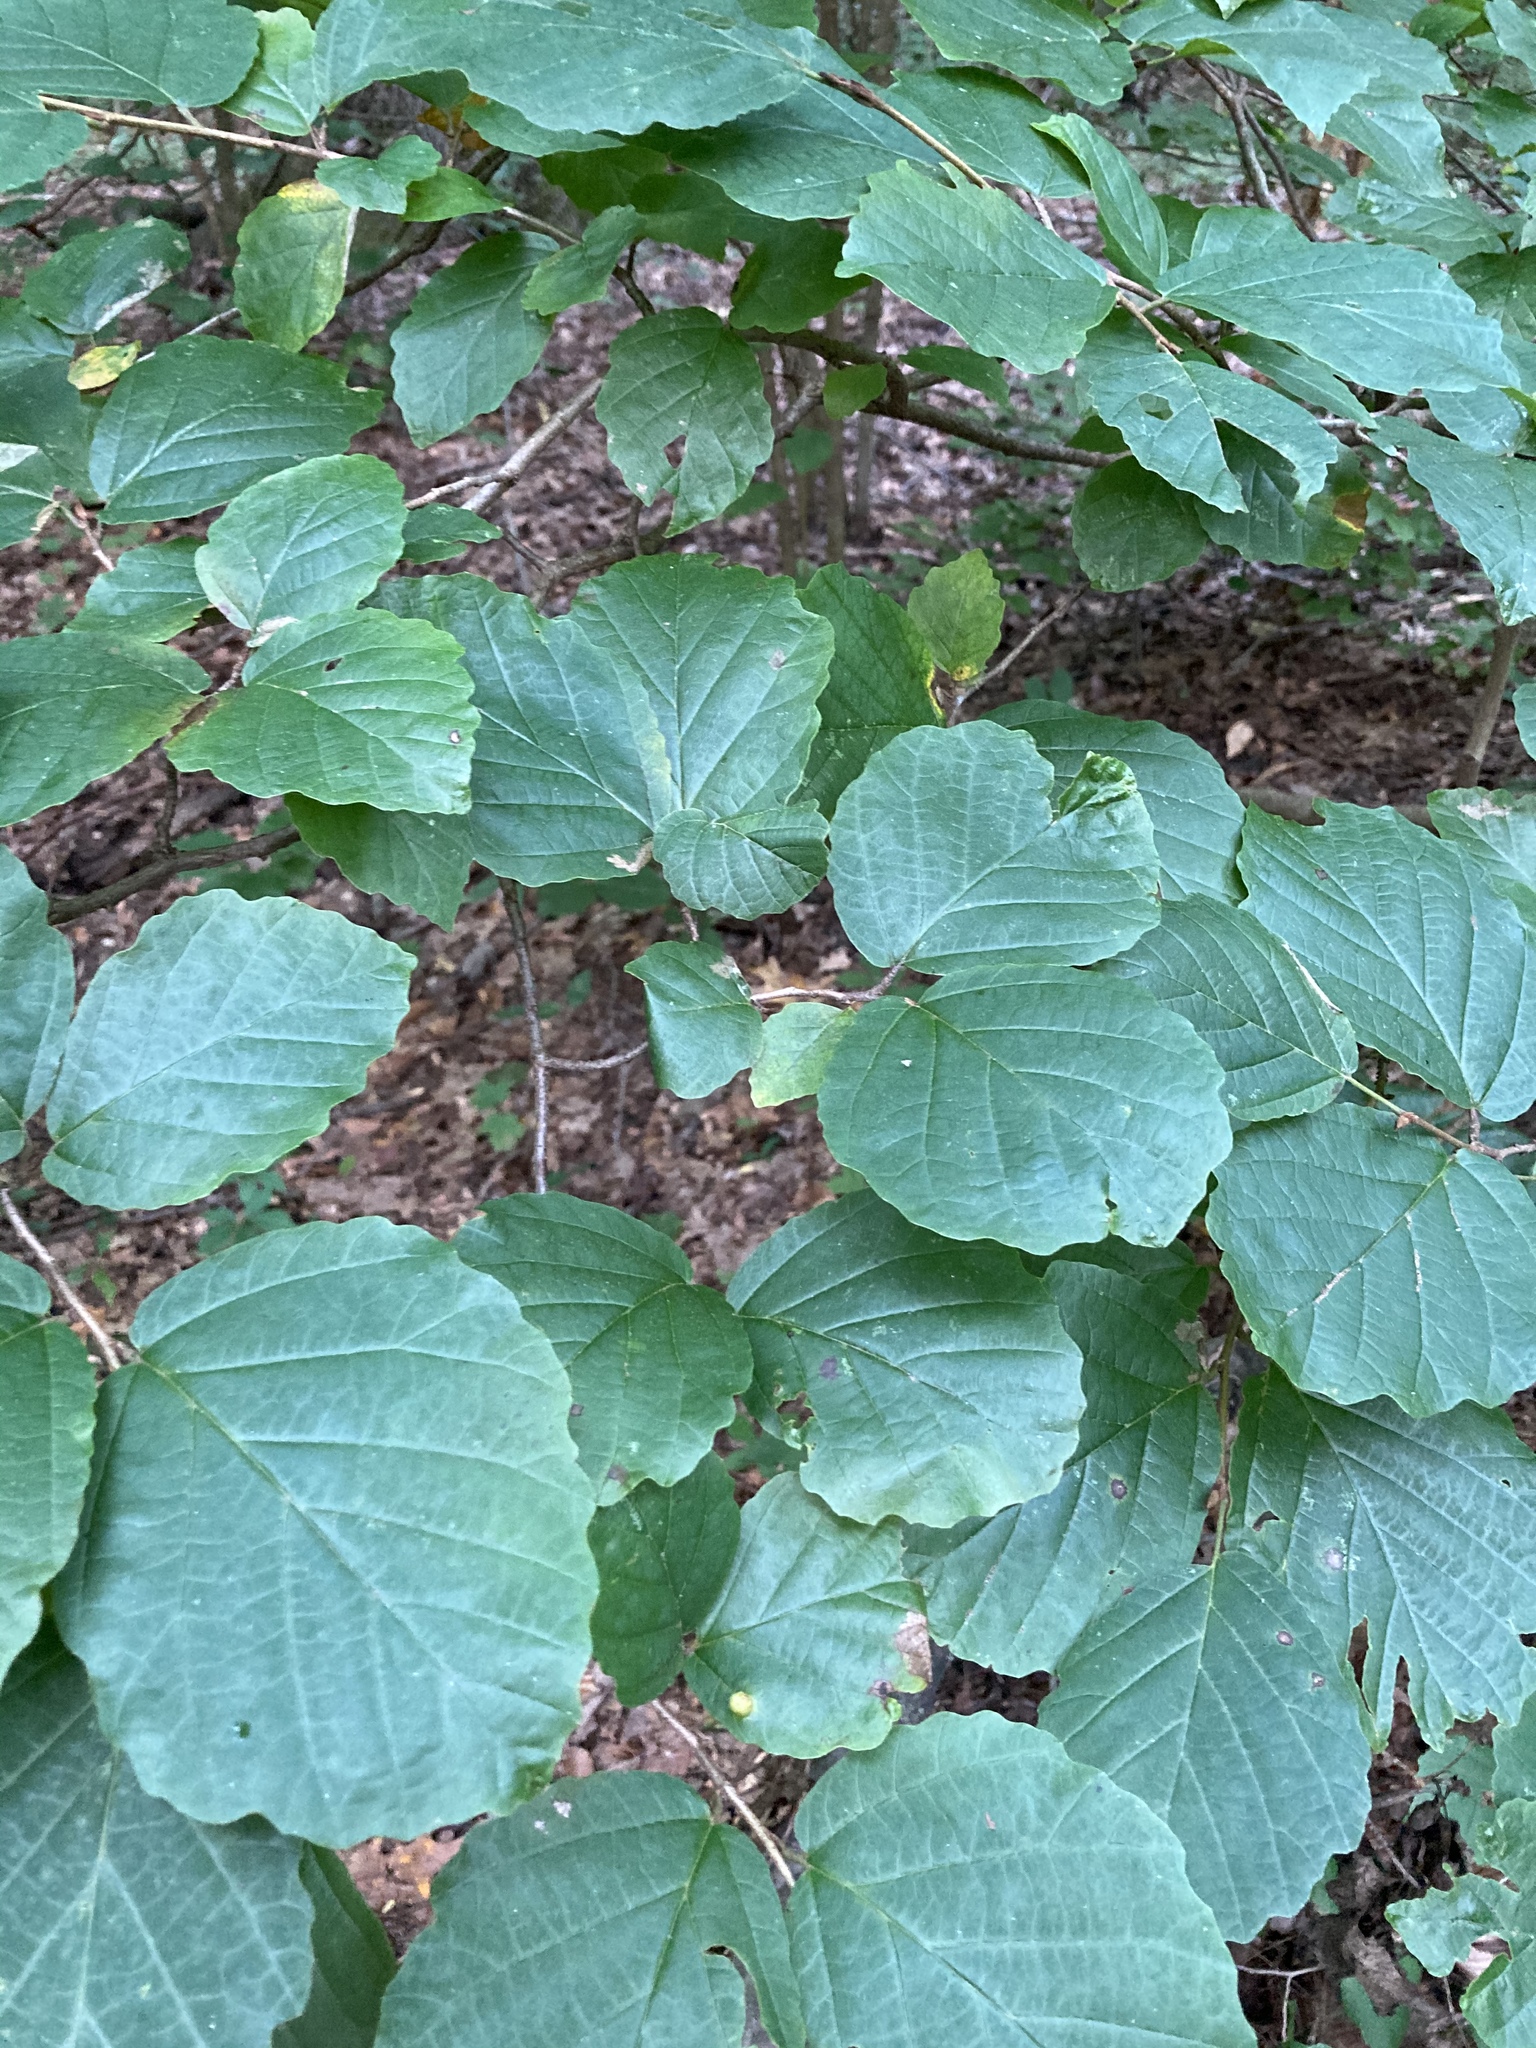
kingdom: Plantae
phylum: Tracheophyta
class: Magnoliopsida
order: Saxifragales
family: Hamamelidaceae
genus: Hamamelis
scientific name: Hamamelis virginiana
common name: Witch-hazel
